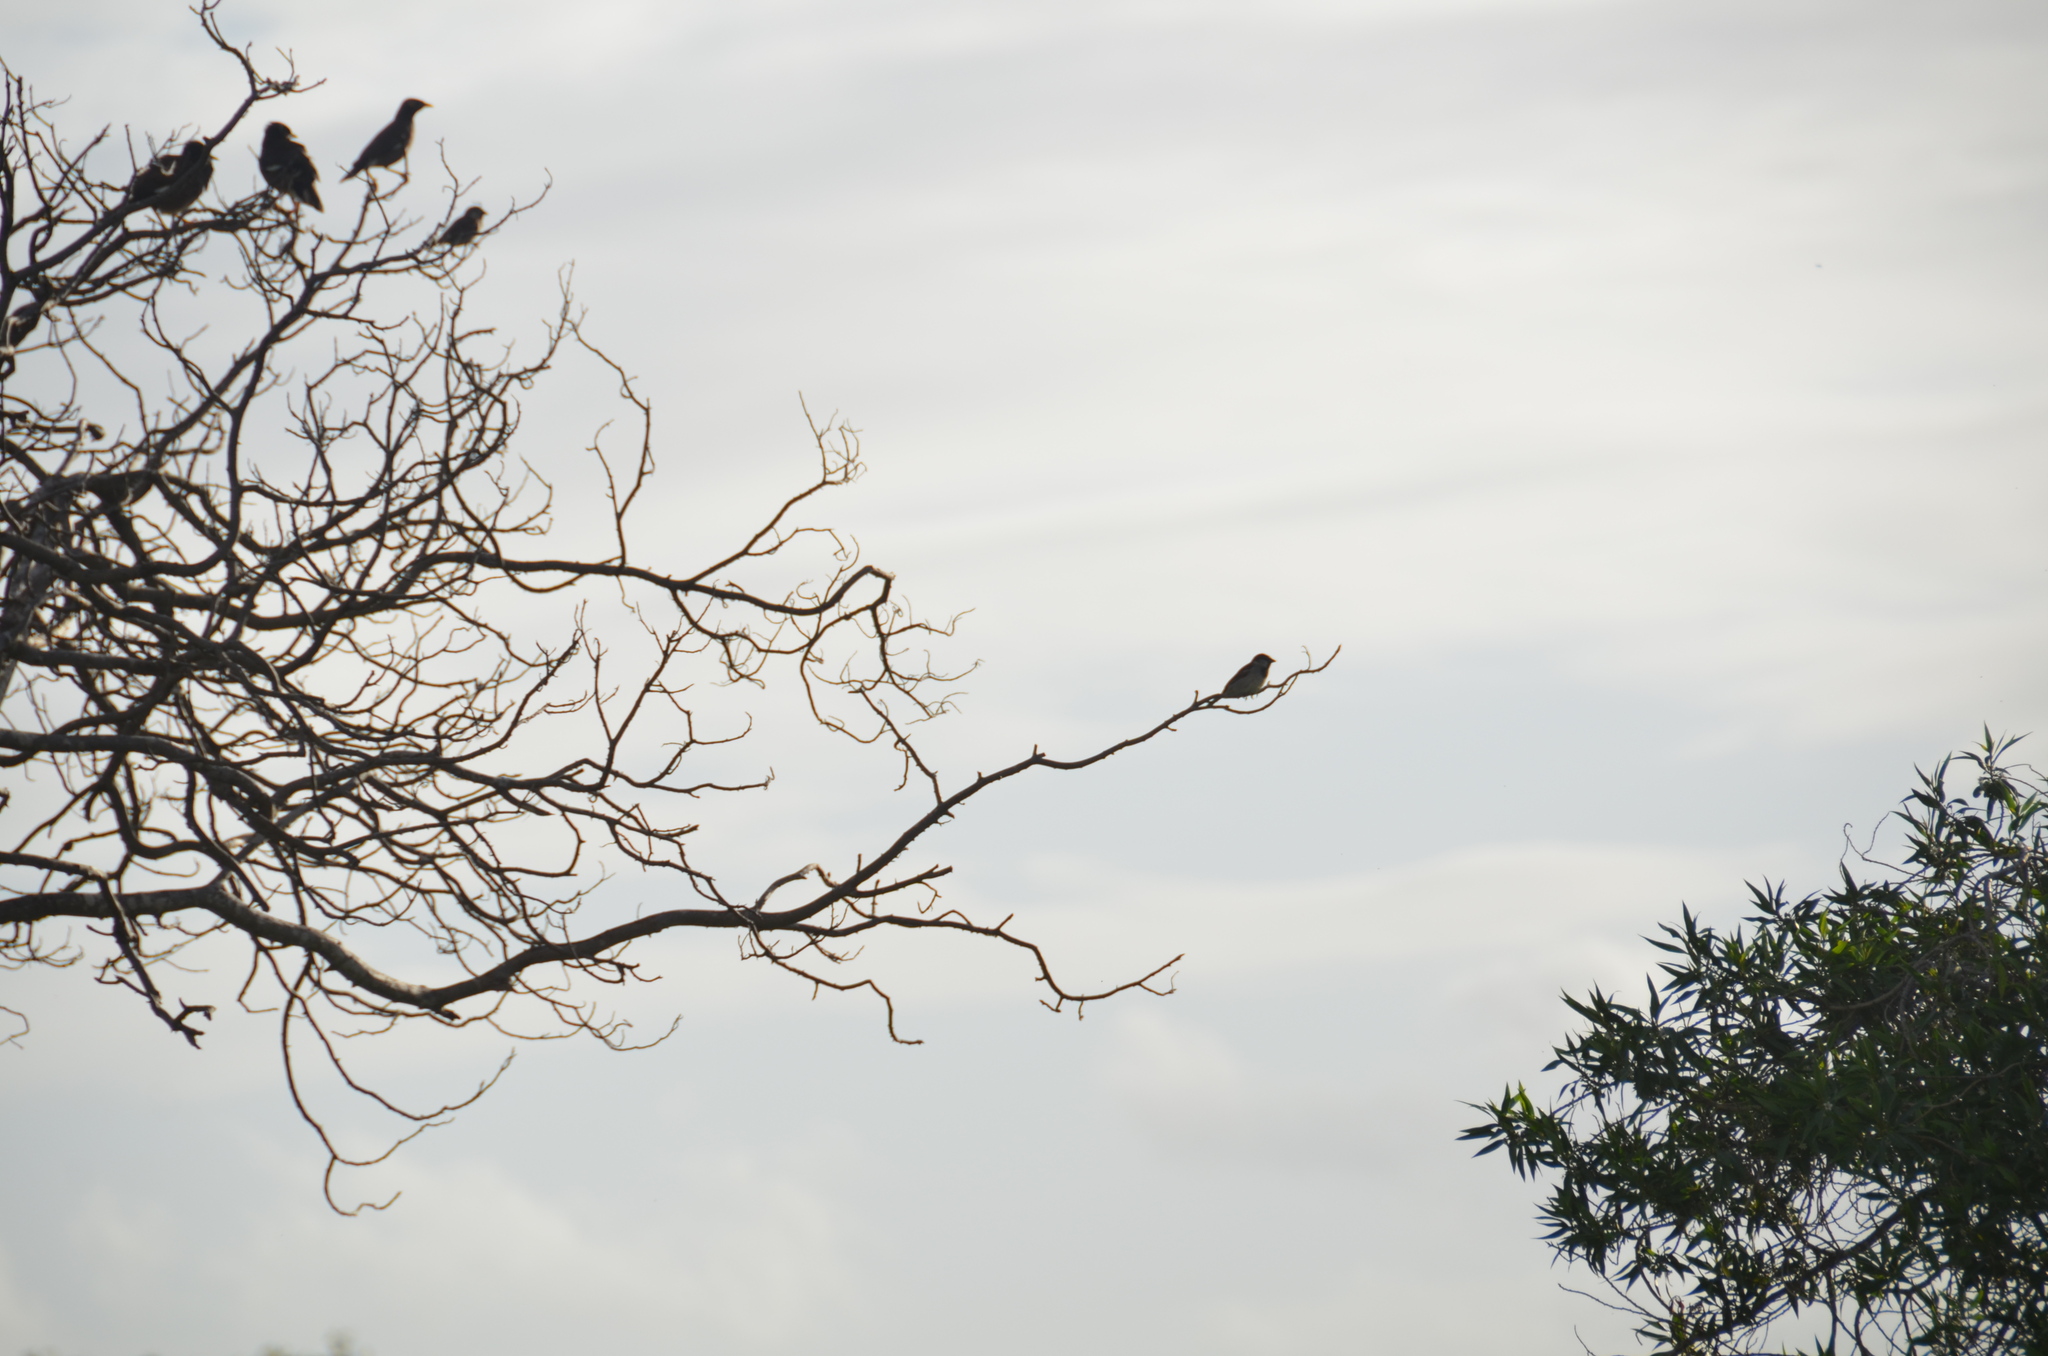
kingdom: Animalia
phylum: Chordata
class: Aves
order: Passeriformes
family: Passeridae
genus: Passer
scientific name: Passer domesticus
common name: House sparrow
